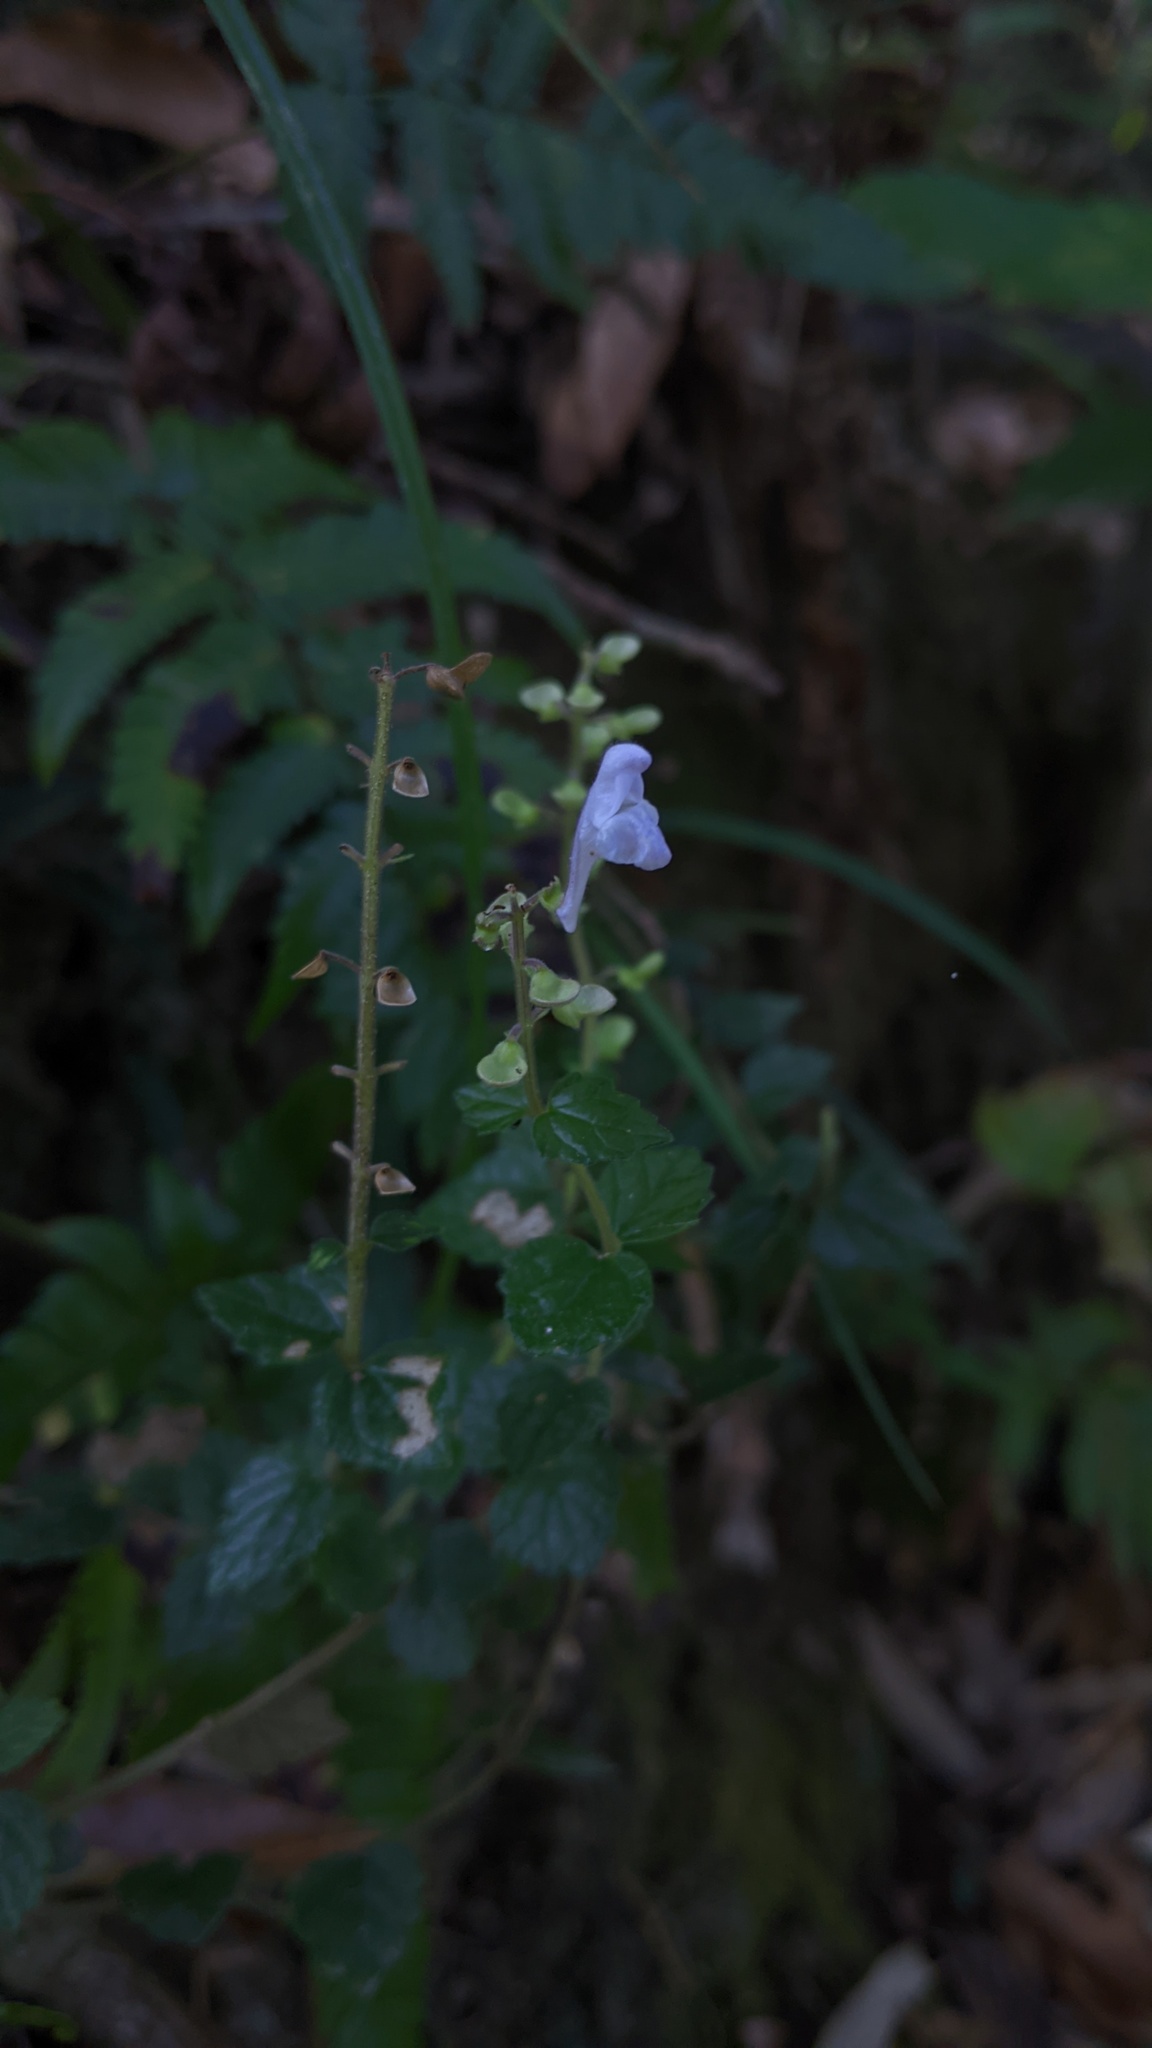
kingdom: Plantae
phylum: Tracheophyta
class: Magnoliopsida
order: Lamiales
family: Lamiaceae
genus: Scutellaria
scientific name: Scutellaria austrotaiwanensis
